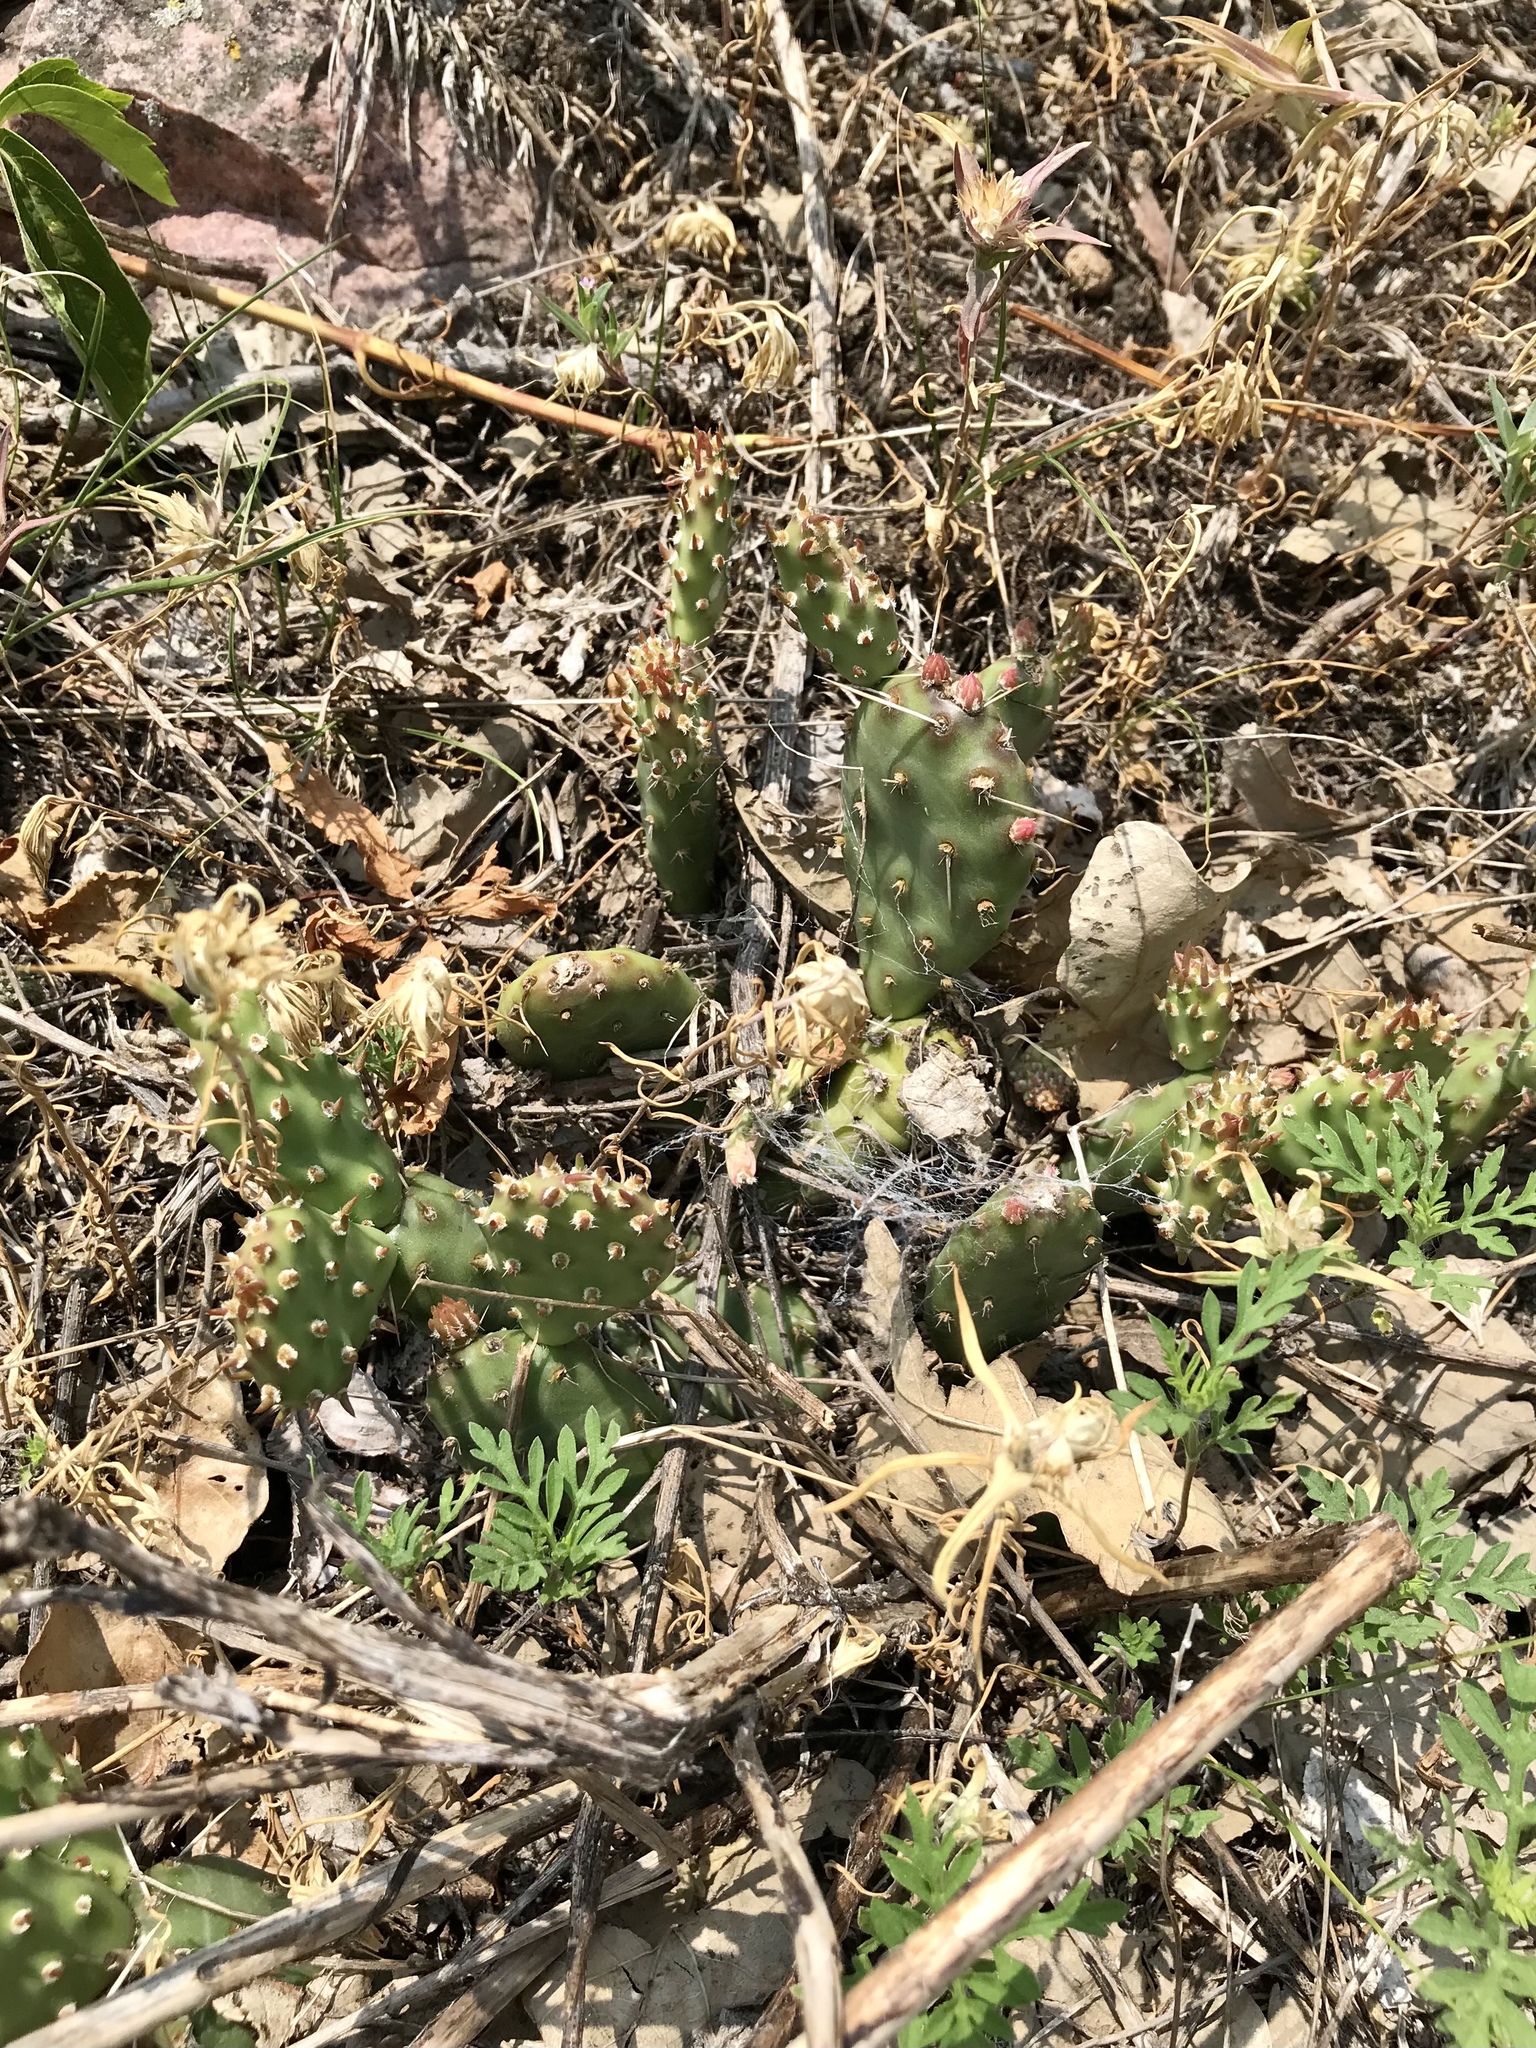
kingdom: Plantae
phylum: Tracheophyta
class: Magnoliopsida
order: Caryophyllales
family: Cactaceae
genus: Opuntia
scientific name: Opuntia fragilis
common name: Brittle cactus
